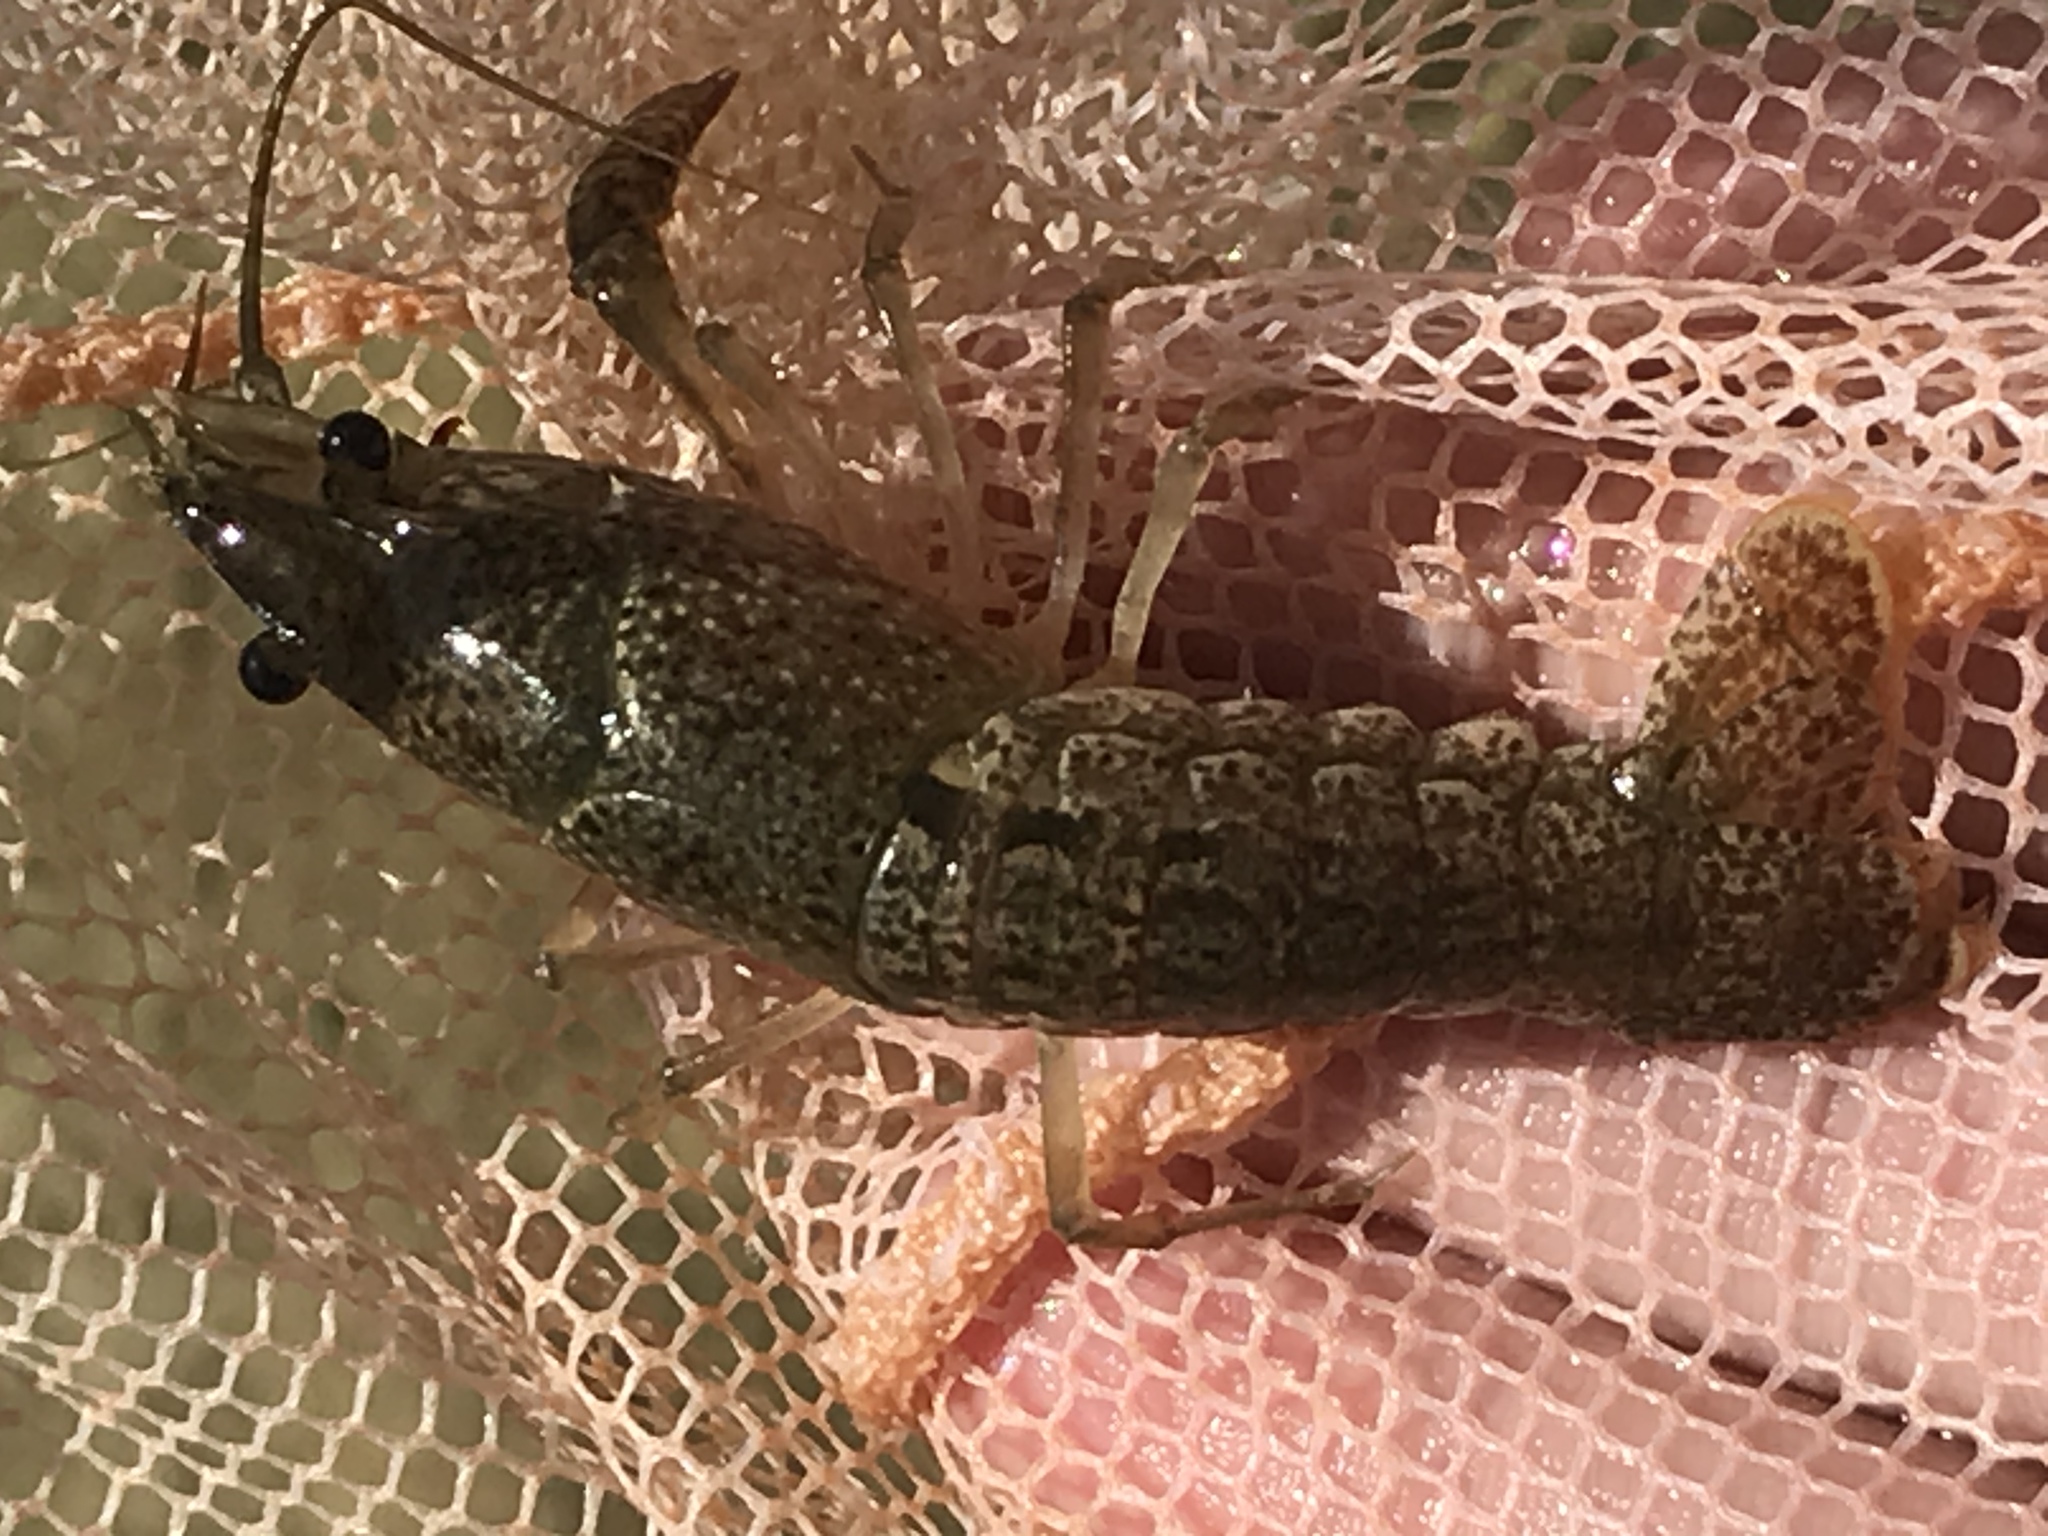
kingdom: Animalia
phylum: Arthropoda
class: Malacostraca
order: Decapoda
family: Cambaridae
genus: Procambarus
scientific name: Procambarus clarkii
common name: Red swamp crayfish
